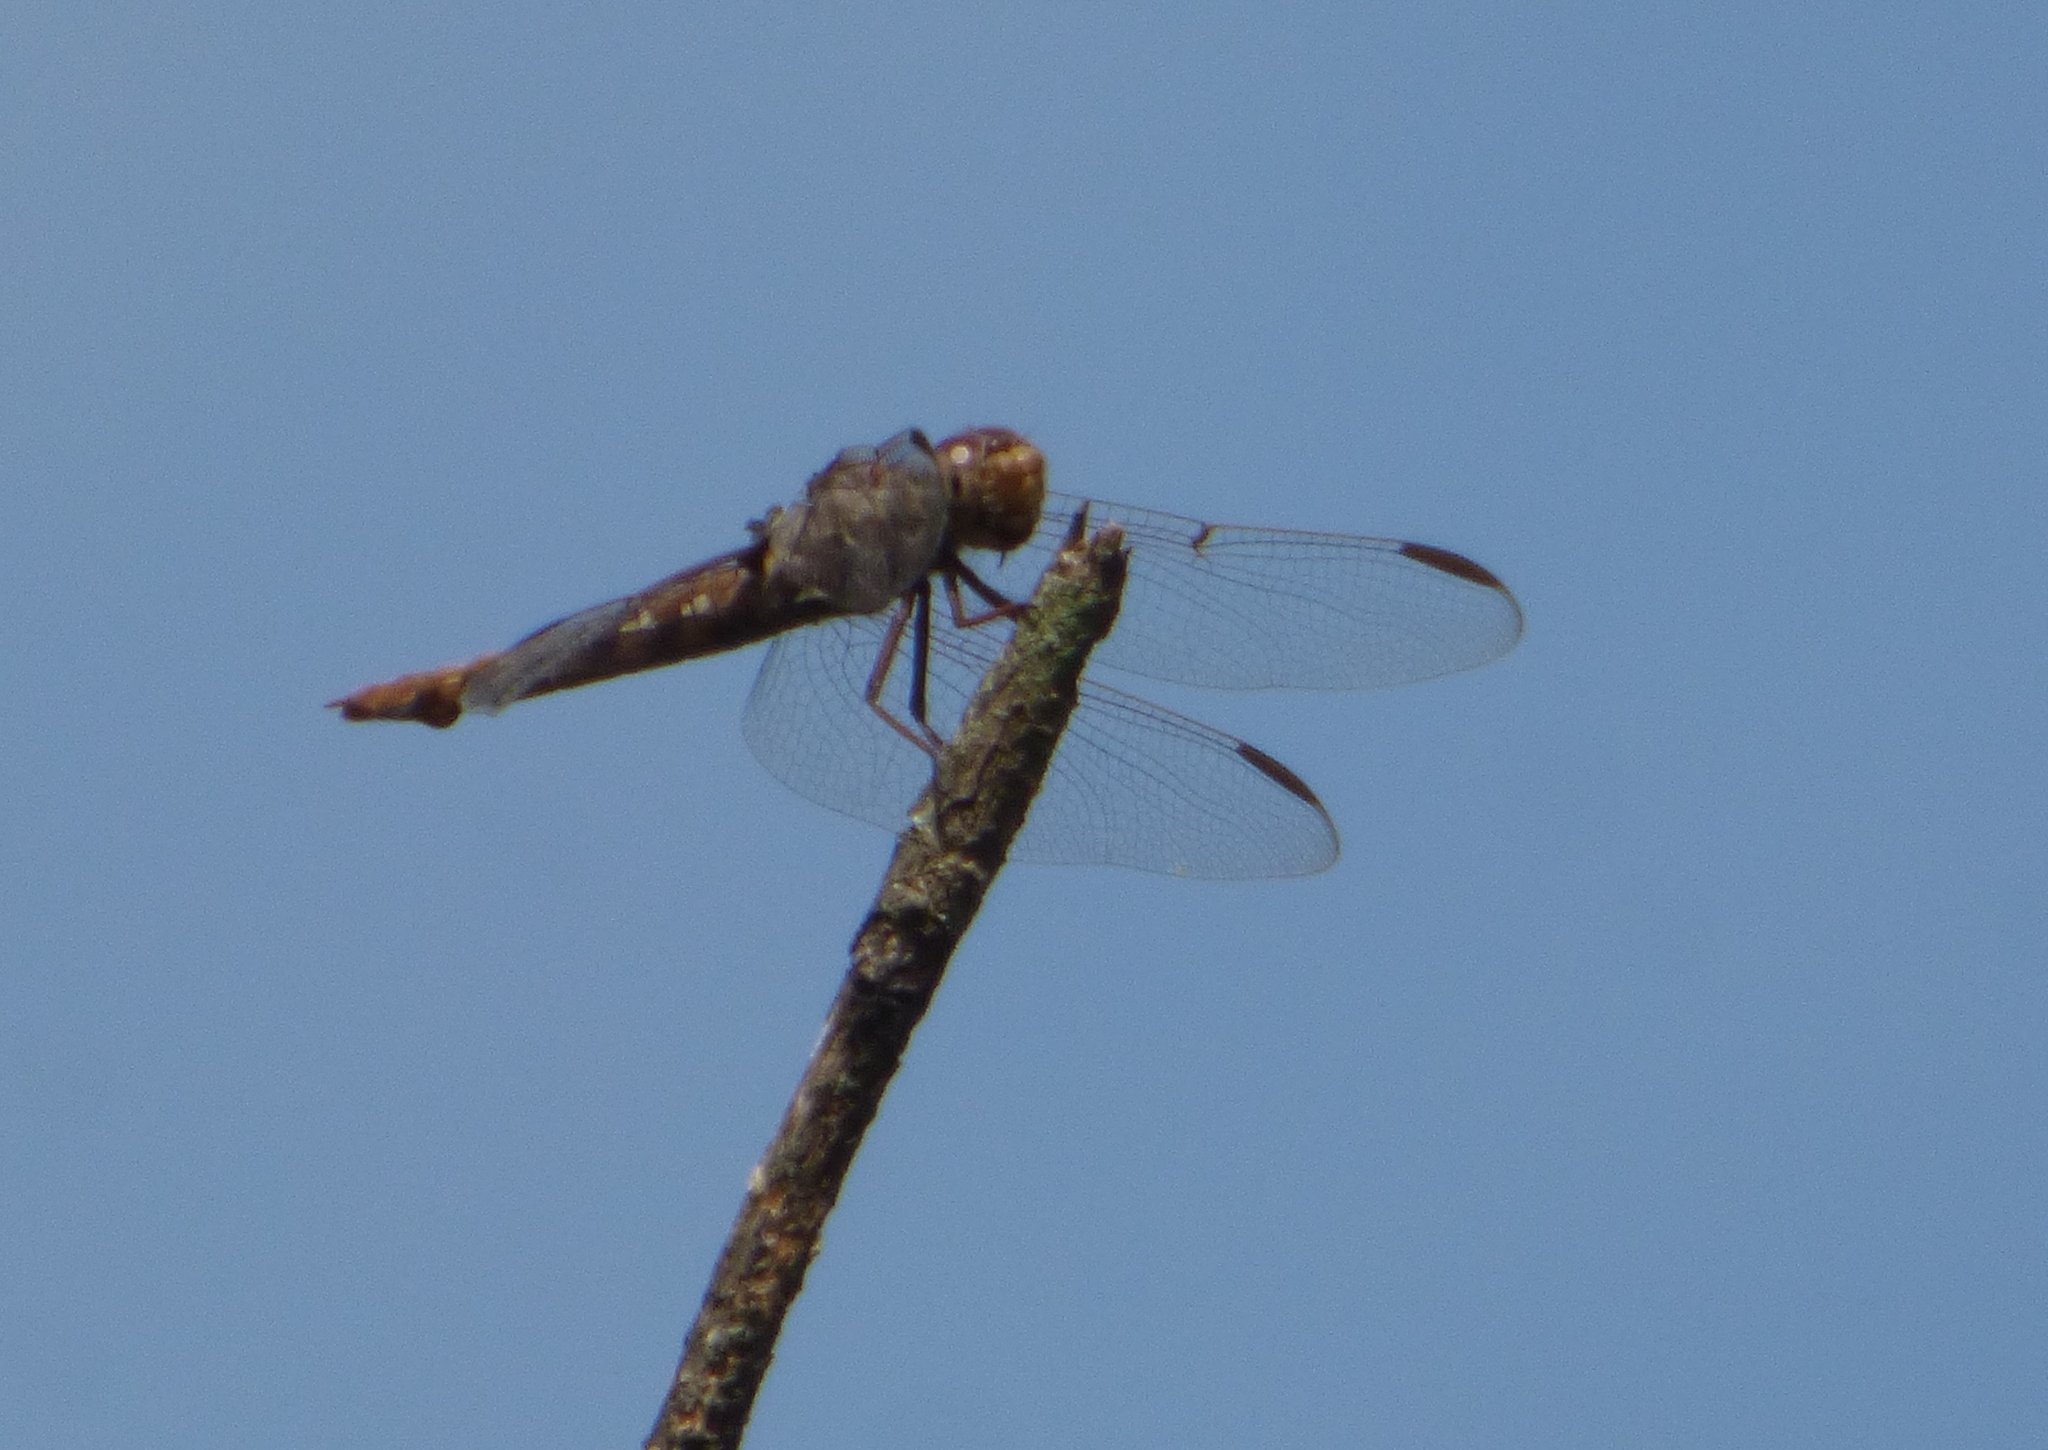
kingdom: Animalia
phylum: Arthropoda
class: Insecta
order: Odonata
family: Libellulidae
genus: Orthemis
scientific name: Orthemis nodiplaga
